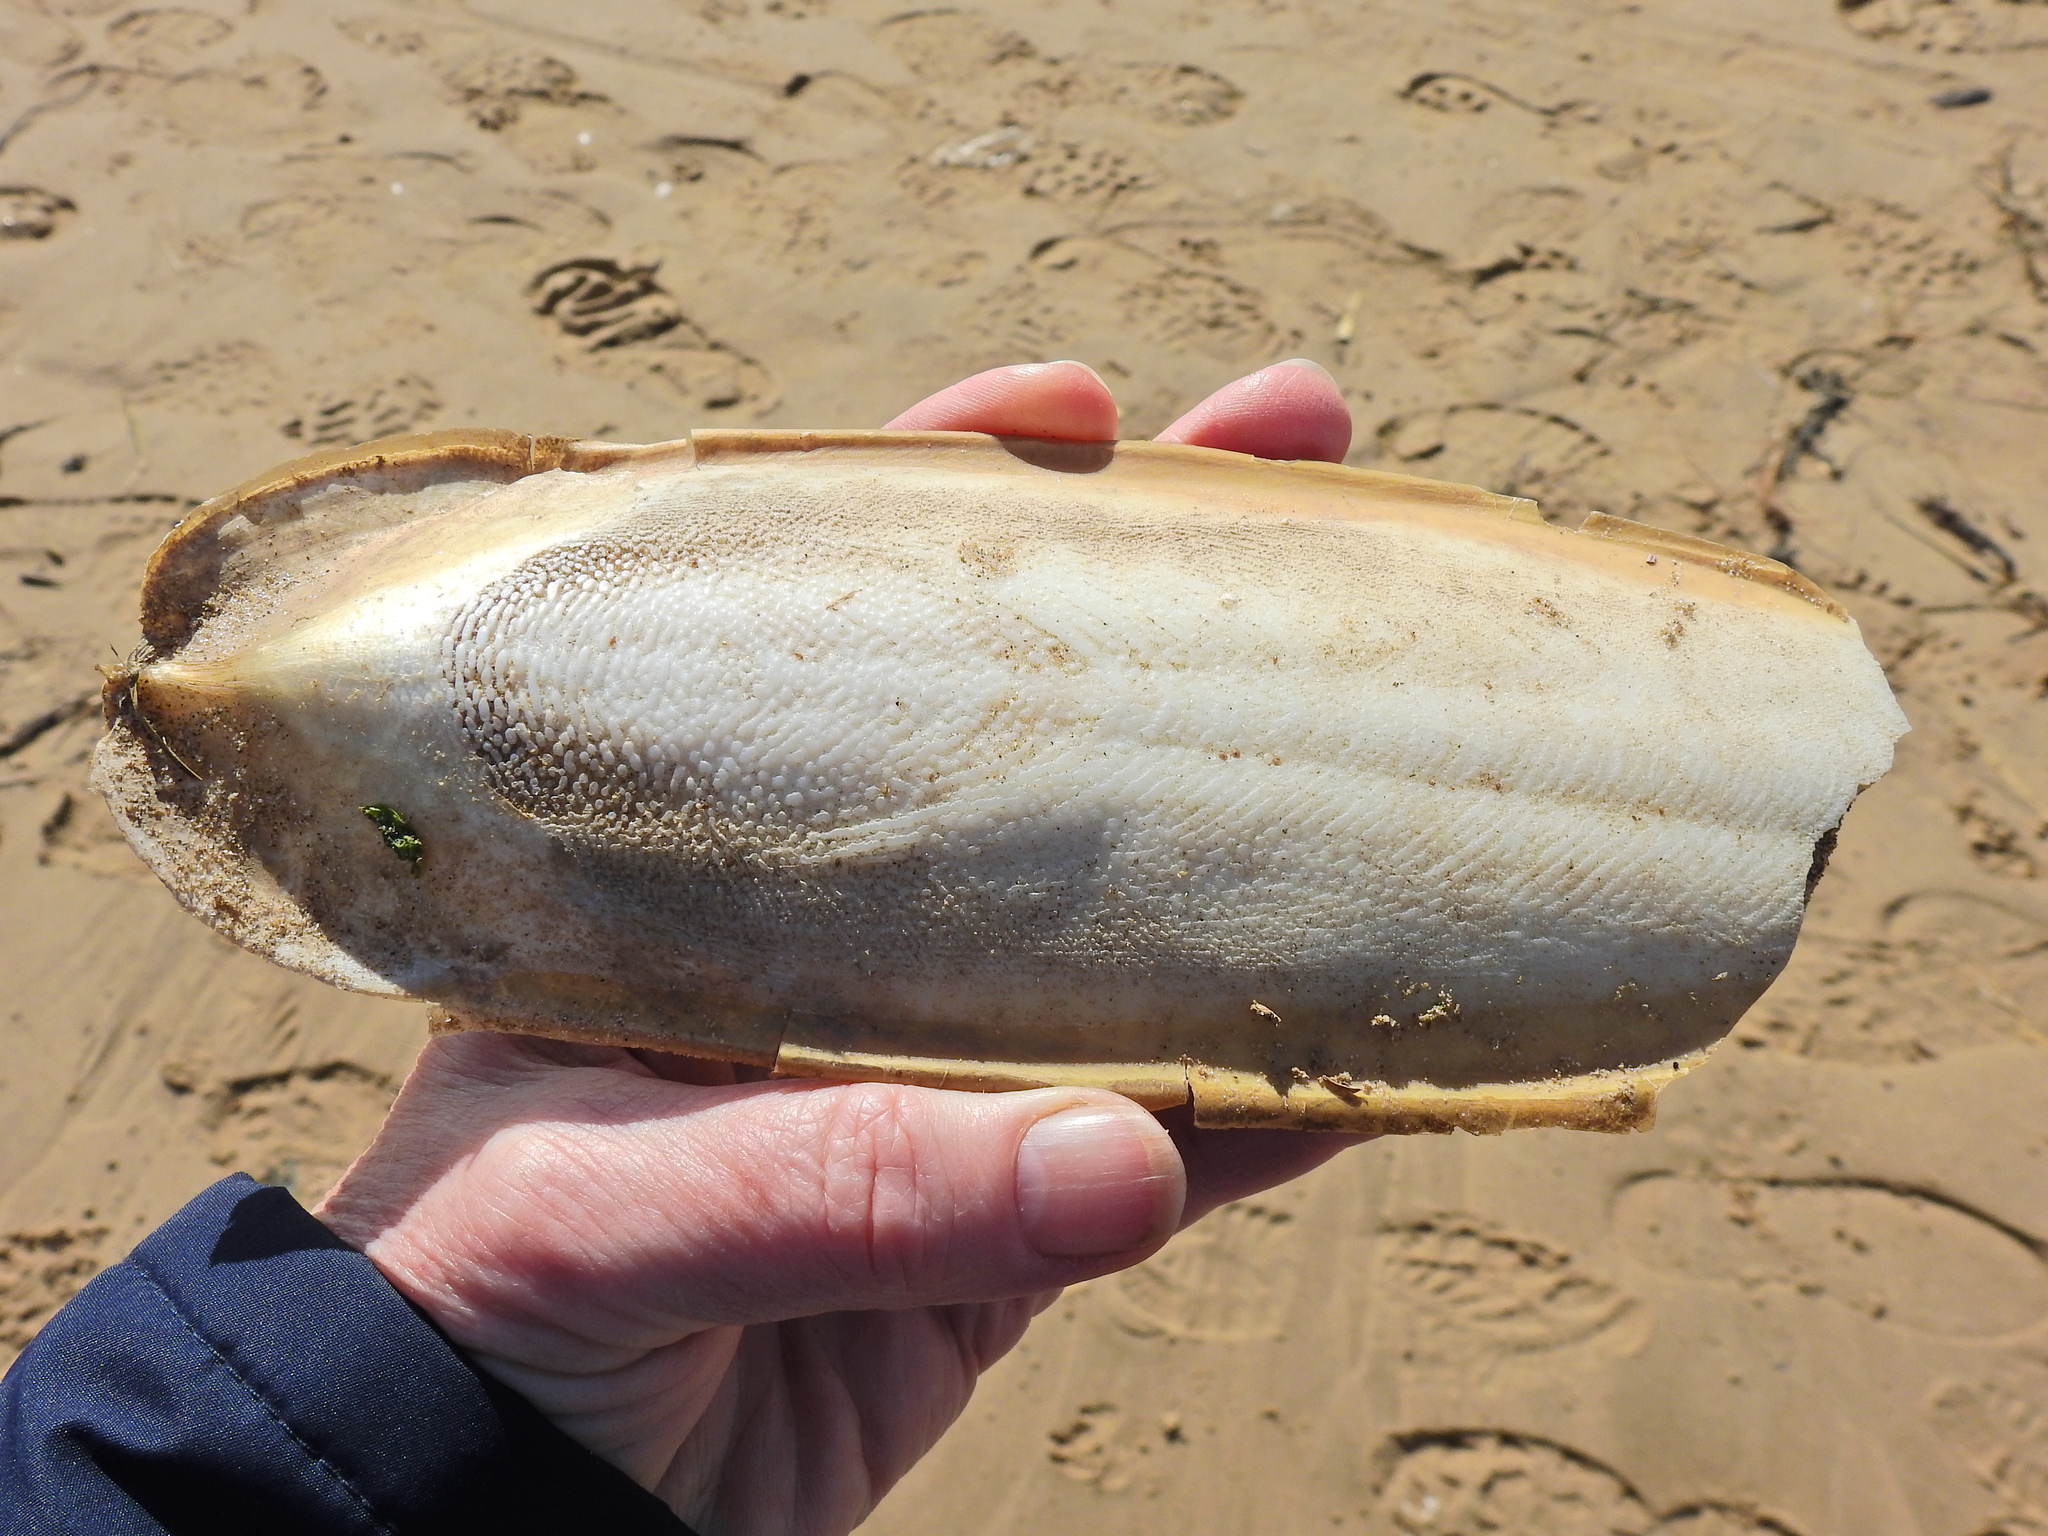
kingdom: Animalia
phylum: Mollusca
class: Cephalopoda
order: Sepiida
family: Sepiidae
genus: Sepia
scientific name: Sepia officinalis
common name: Common cuttlefish
